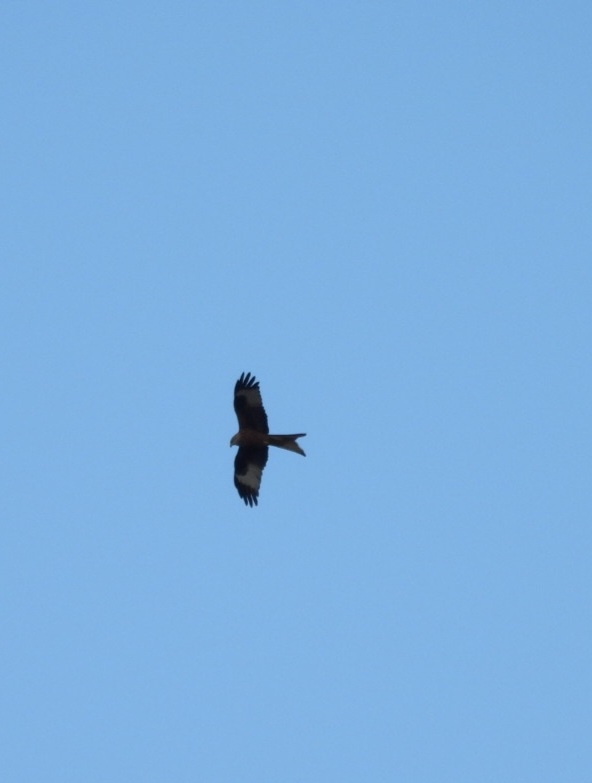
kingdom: Animalia
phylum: Chordata
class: Aves
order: Accipitriformes
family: Accipitridae
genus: Milvus
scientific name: Milvus milvus
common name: Red kite
